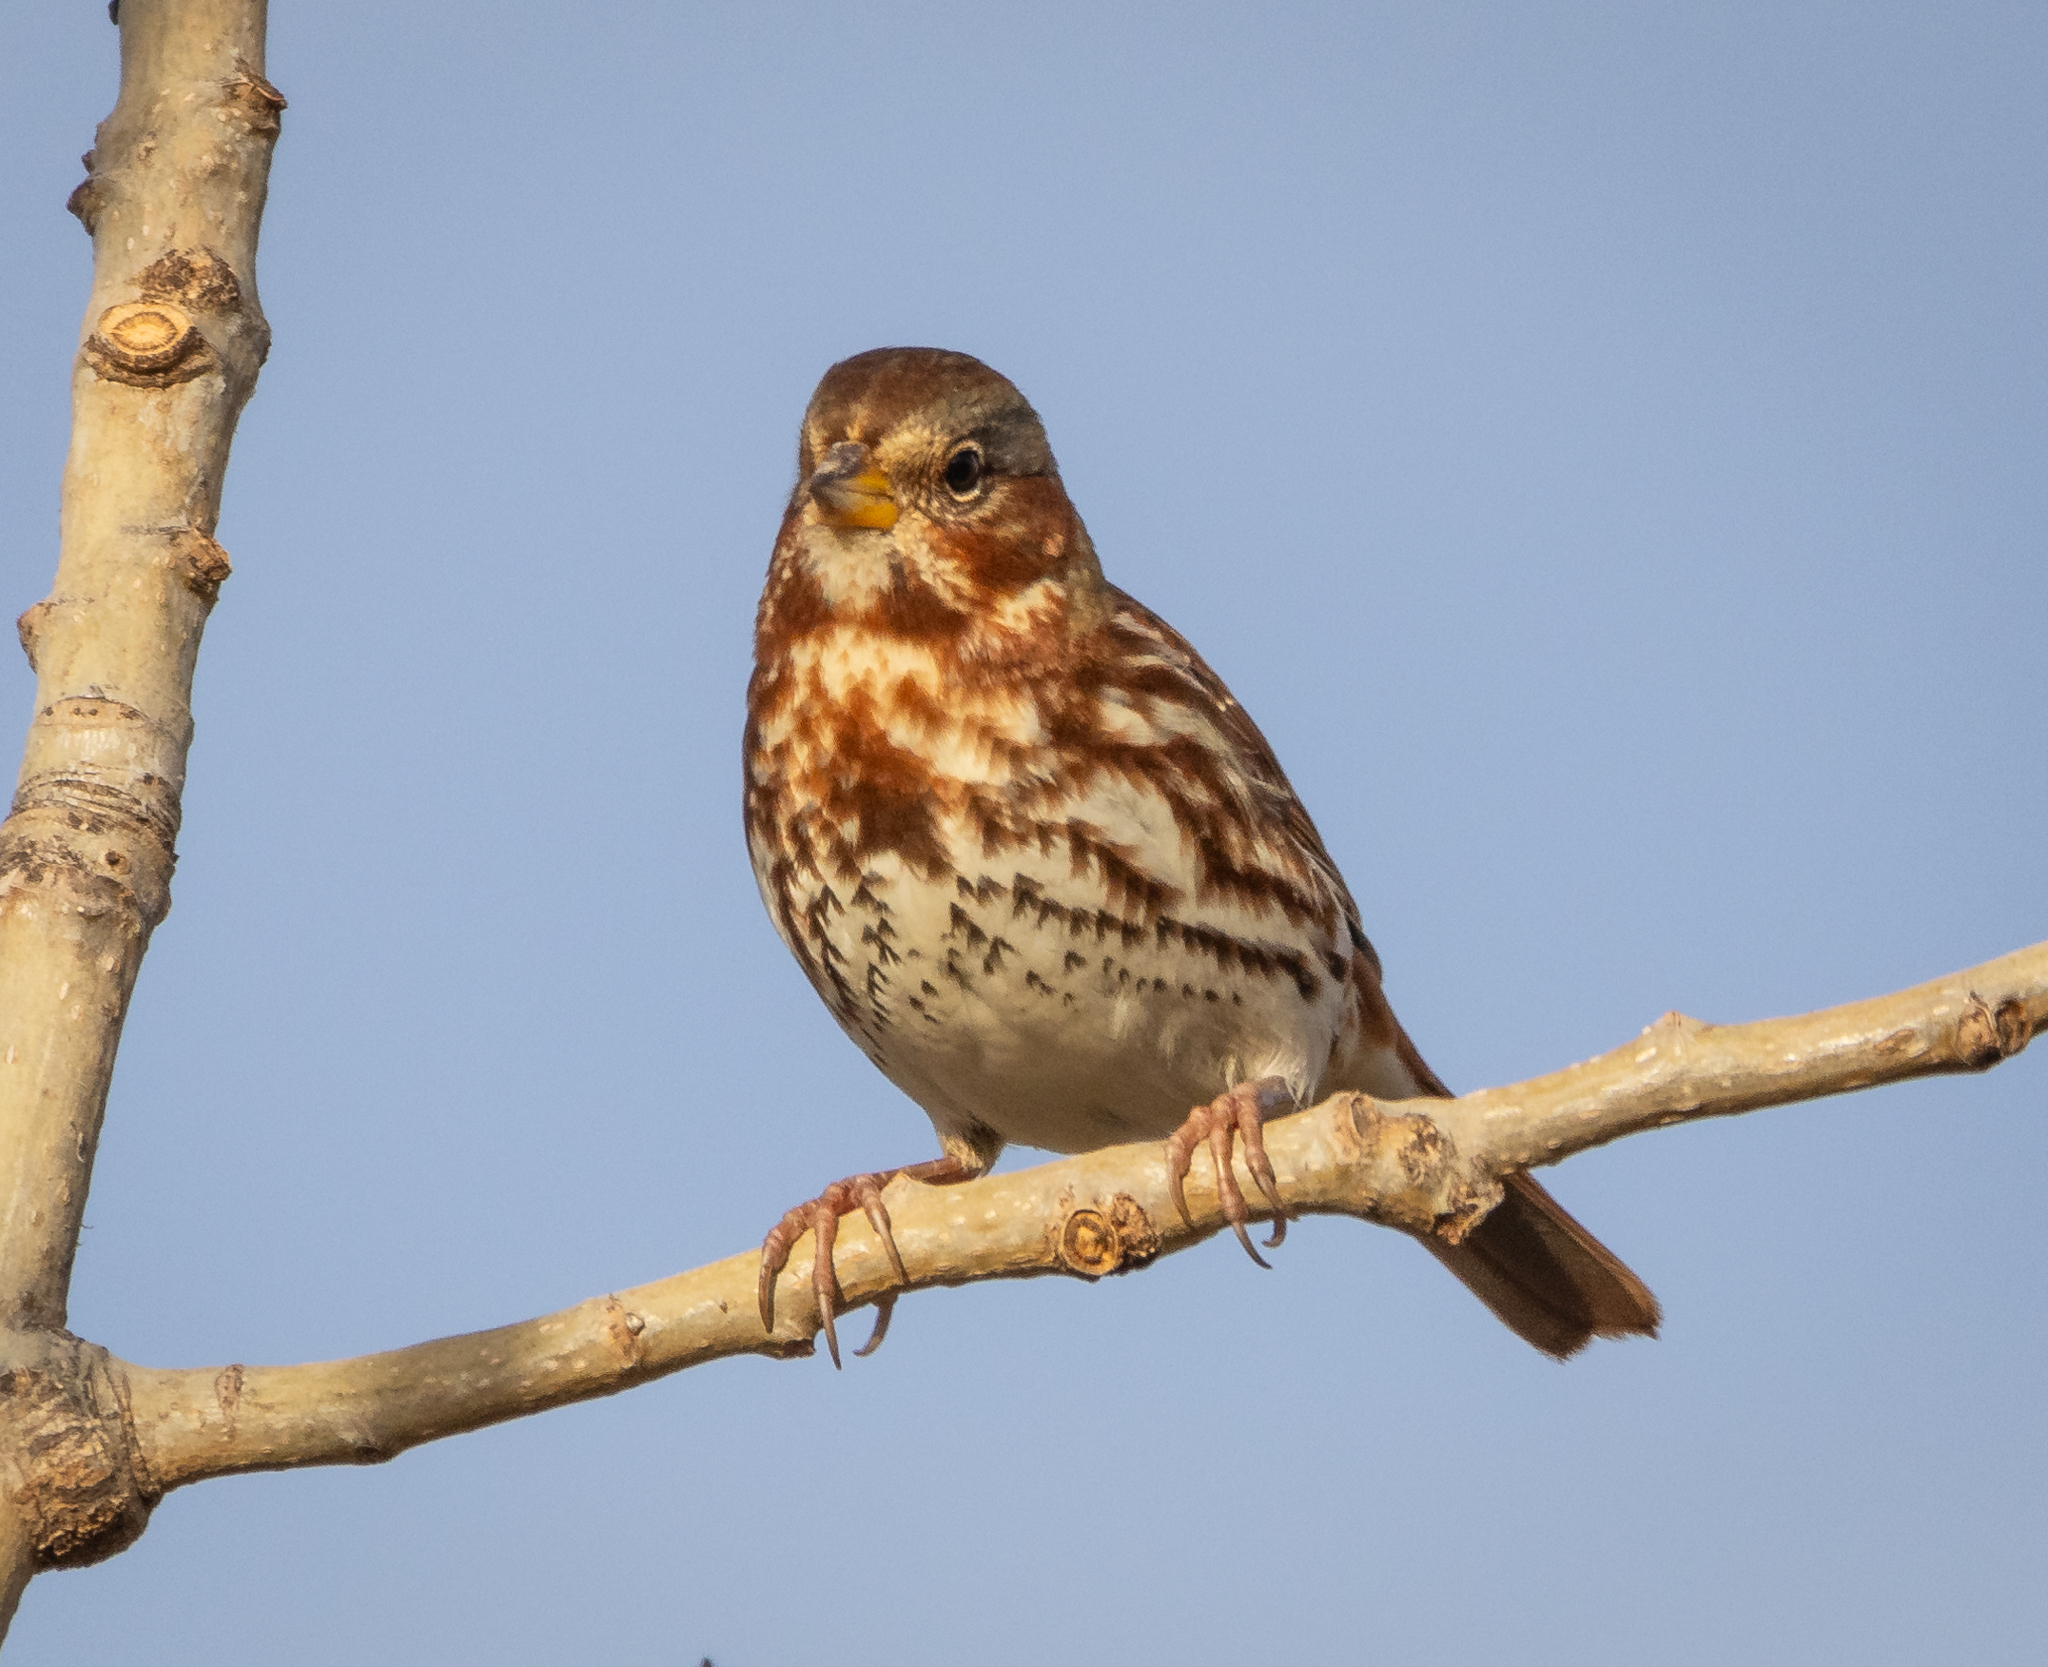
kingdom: Animalia
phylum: Chordata
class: Aves
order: Passeriformes
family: Passerellidae
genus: Passerella
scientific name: Passerella iliaca
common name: Fox sparrow
